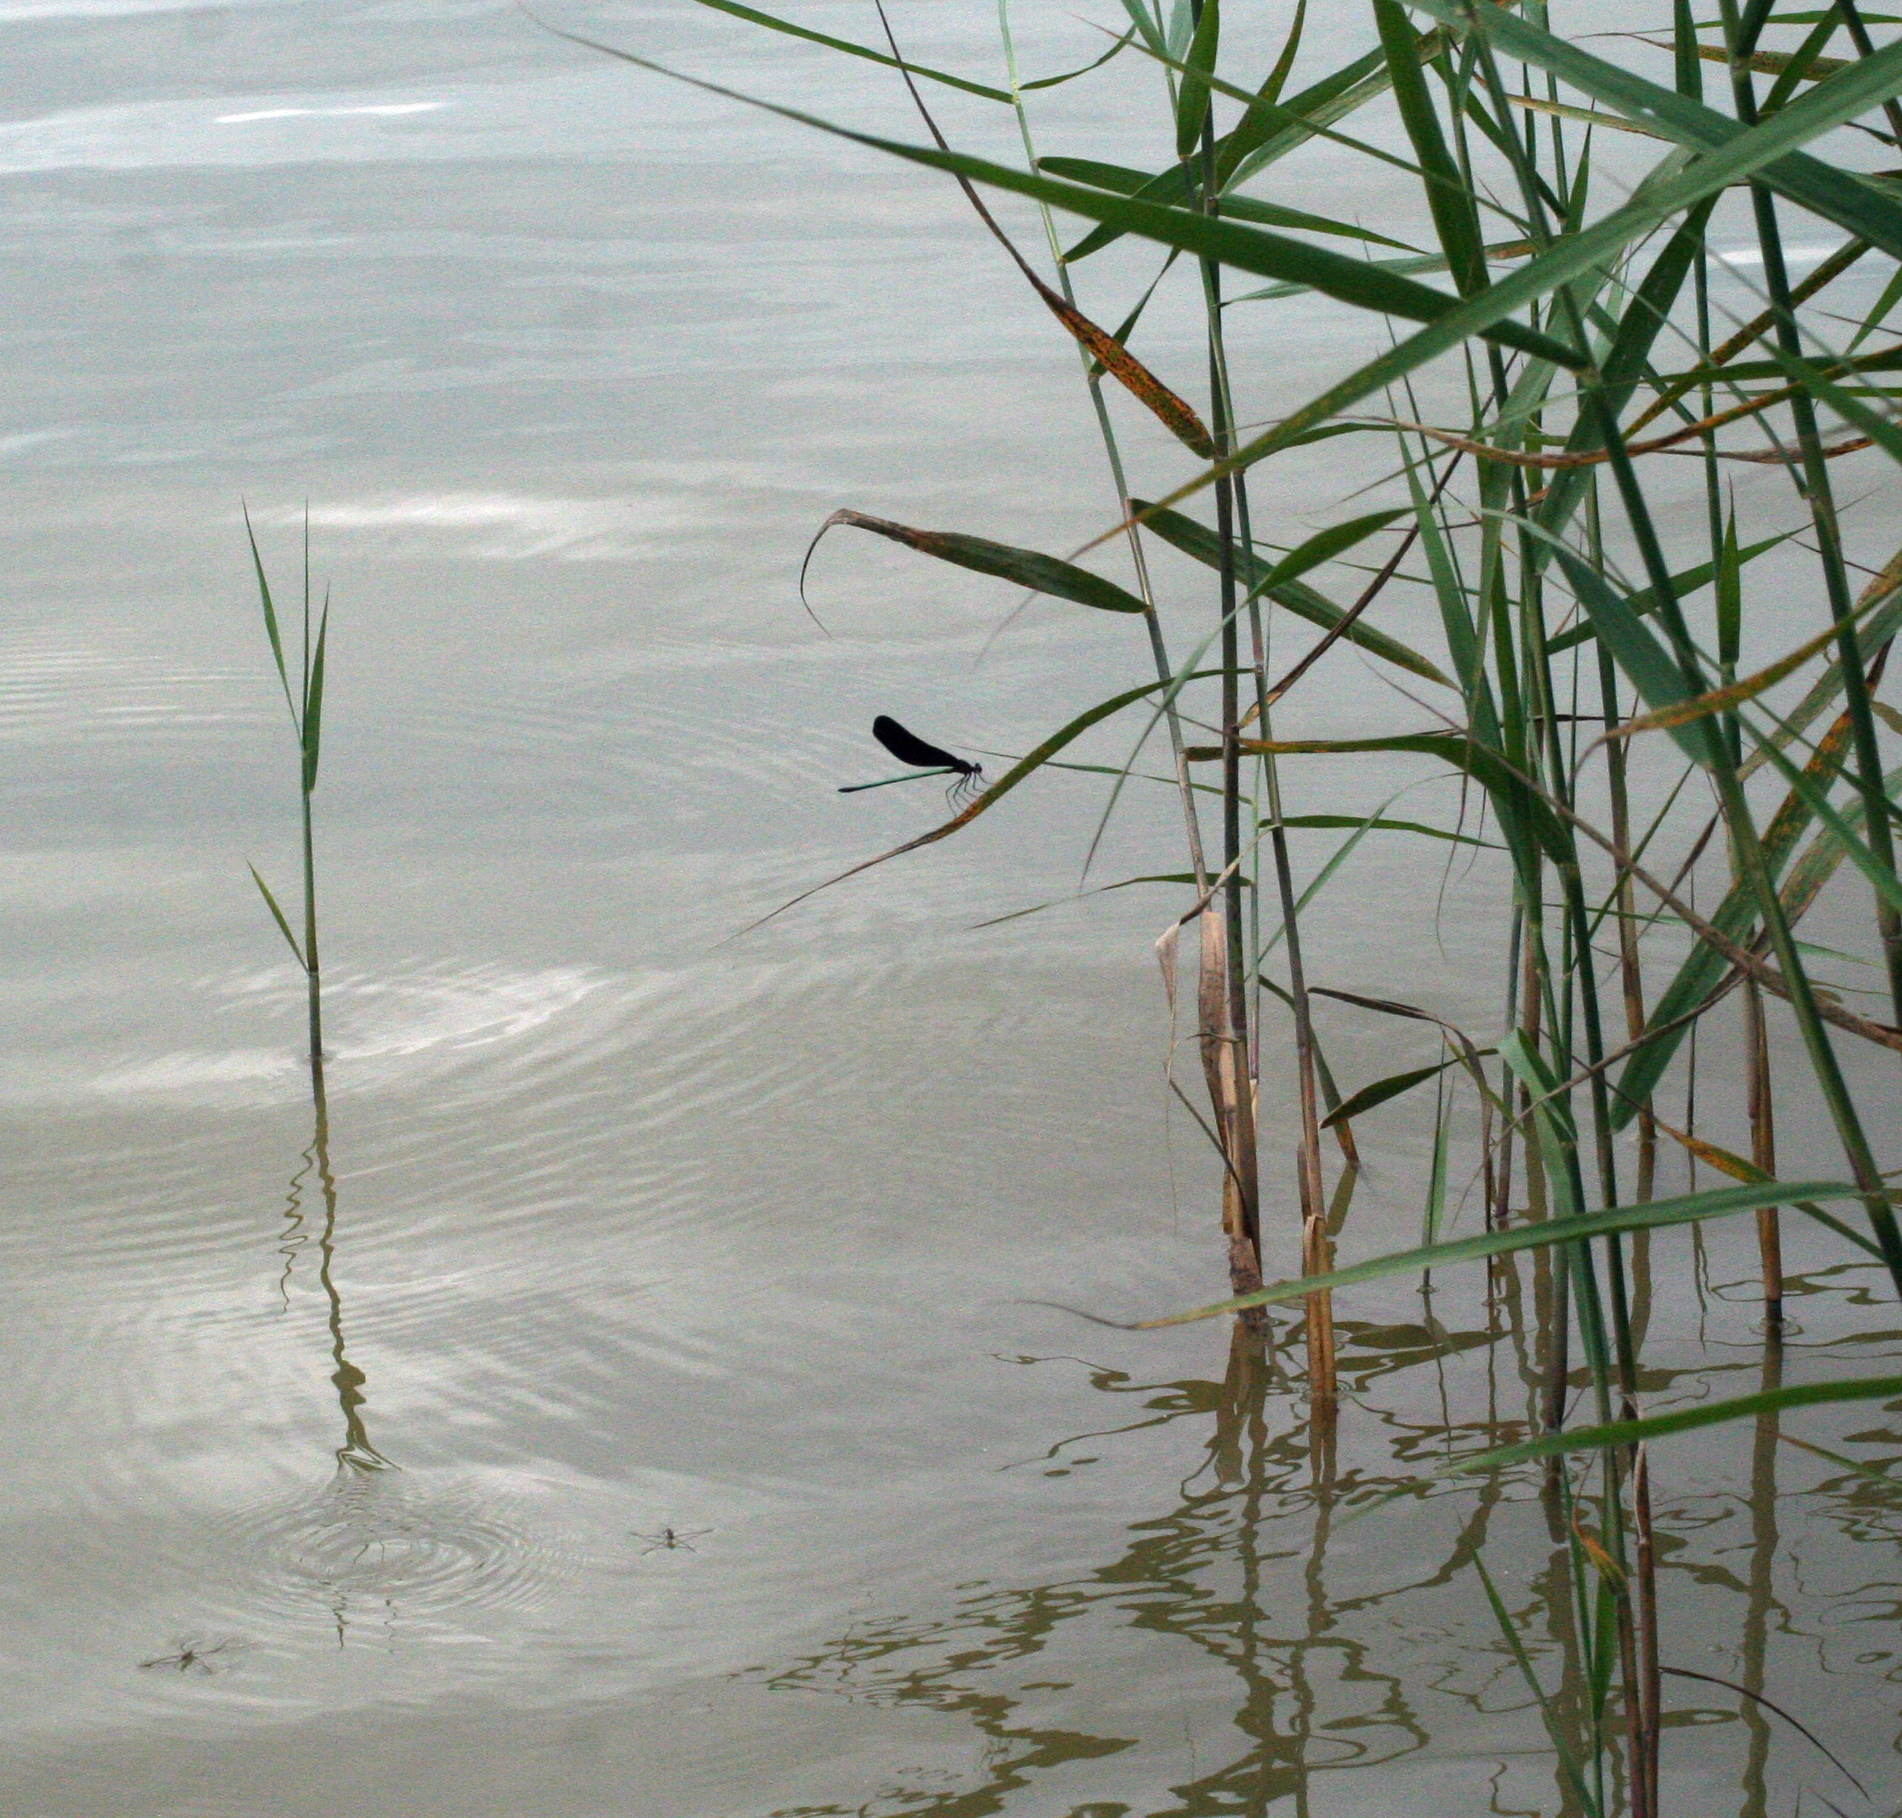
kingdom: Animalia
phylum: Arthropoda
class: Insecta
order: Odonata
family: Calopterygidae
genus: Atrocalopteryx
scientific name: Atrocalopteryx atrata
